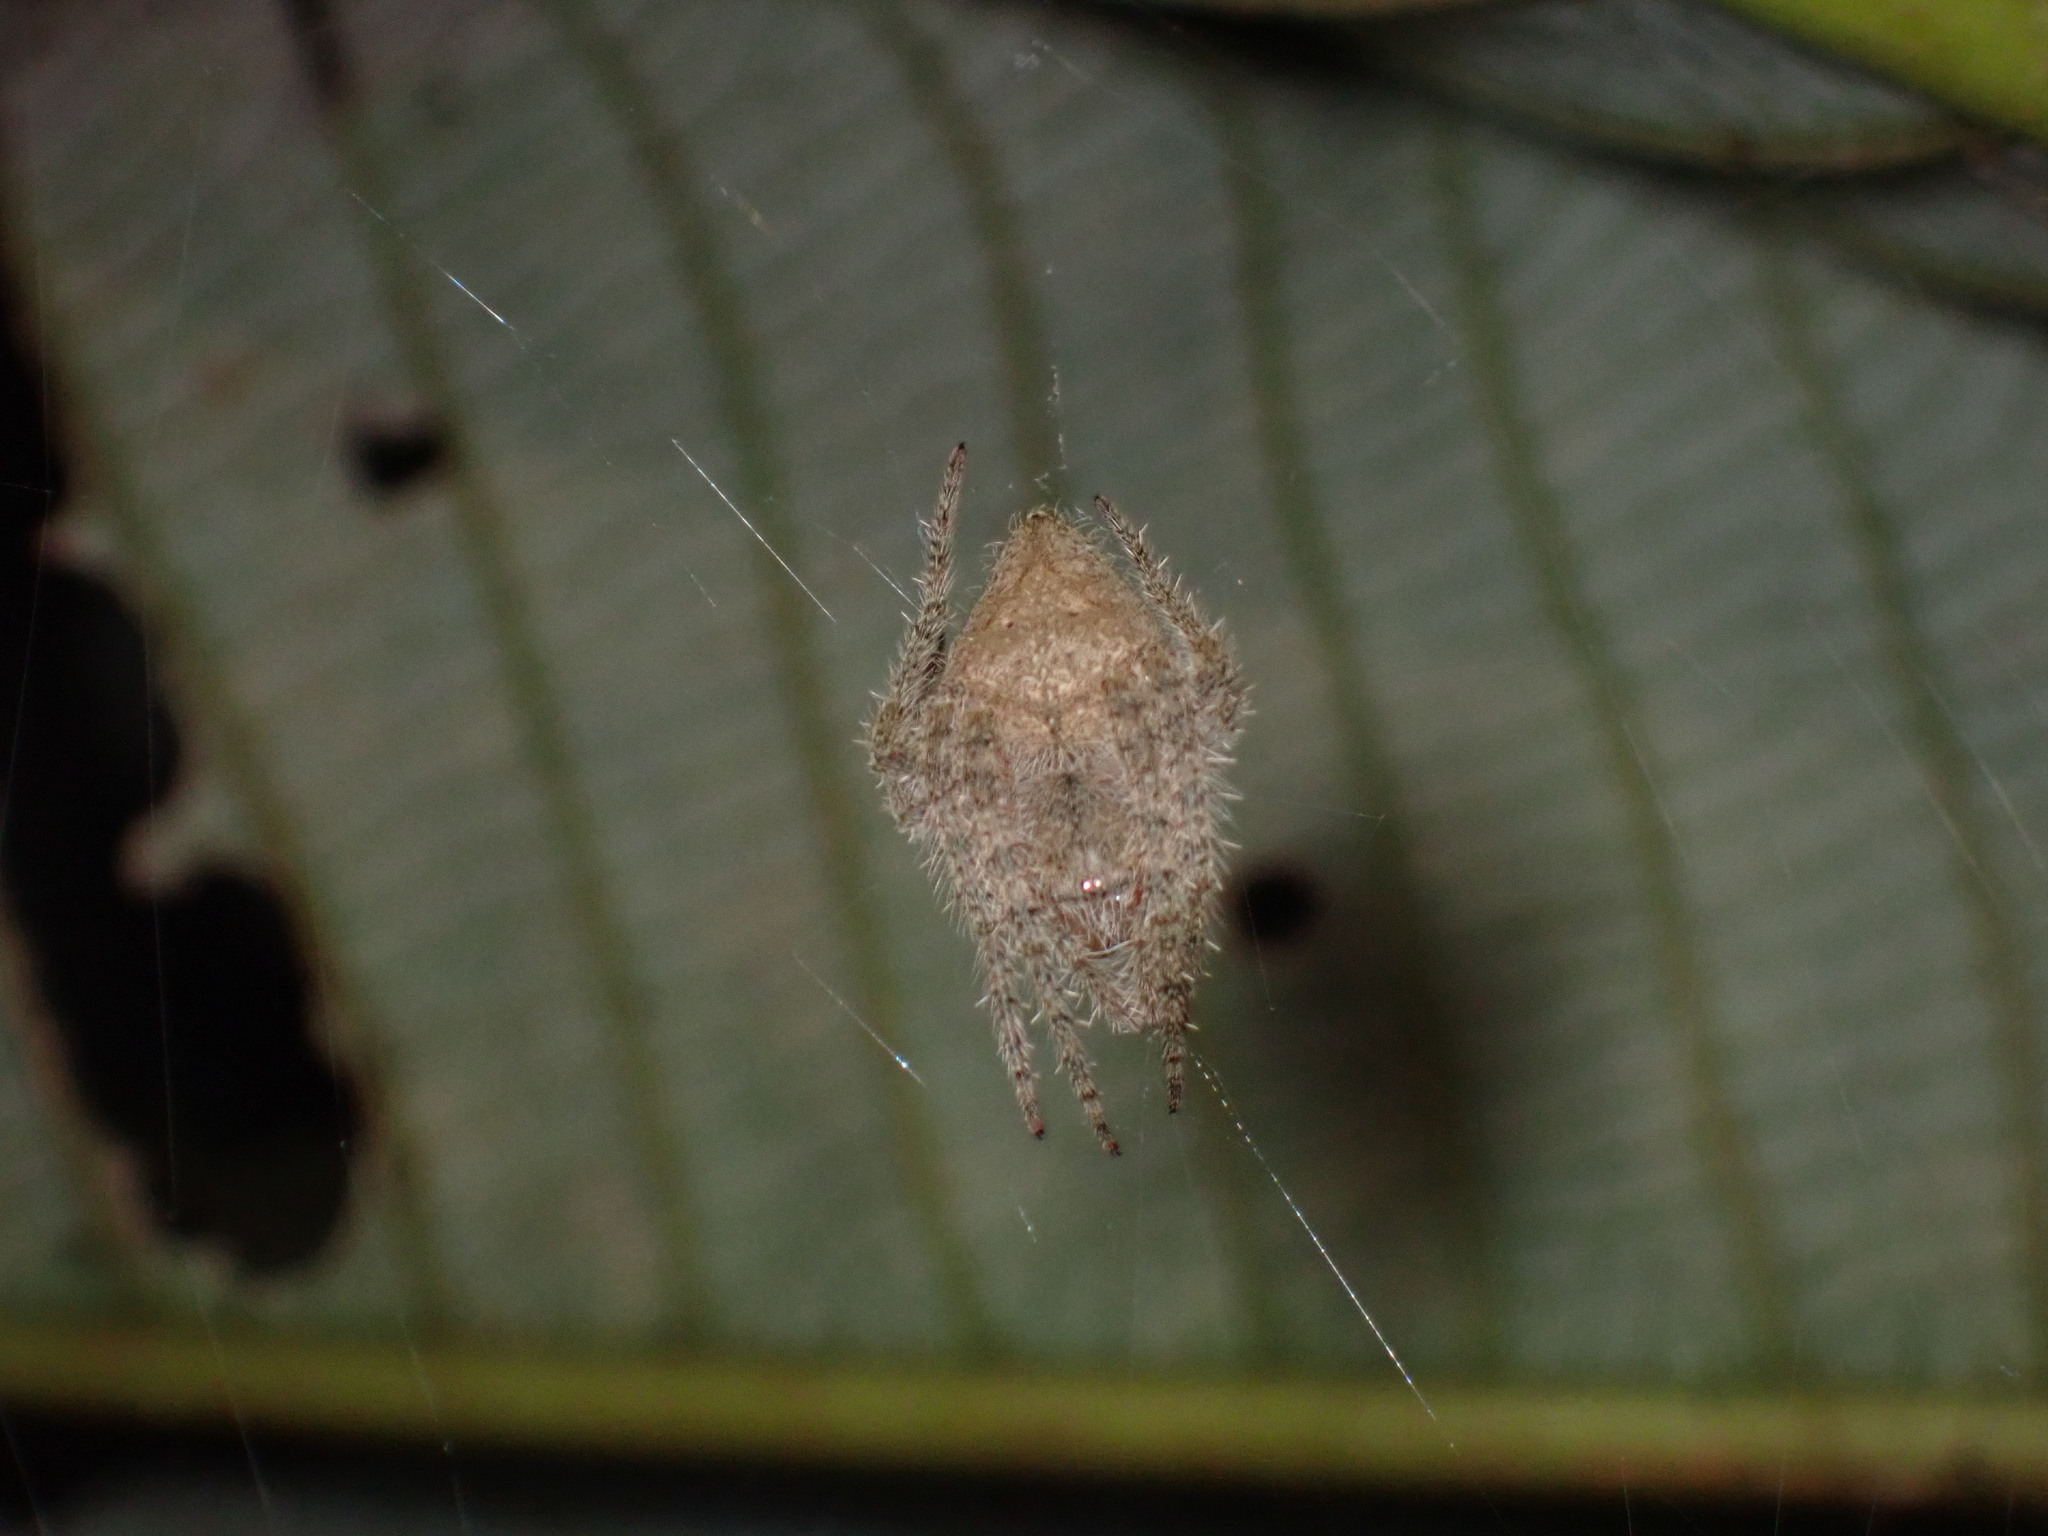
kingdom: Animalia
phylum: Arthropoda
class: Arachnida
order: Araneae
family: Araneidae
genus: Eriophora
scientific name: Eriophora edax
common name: Orb weavers
